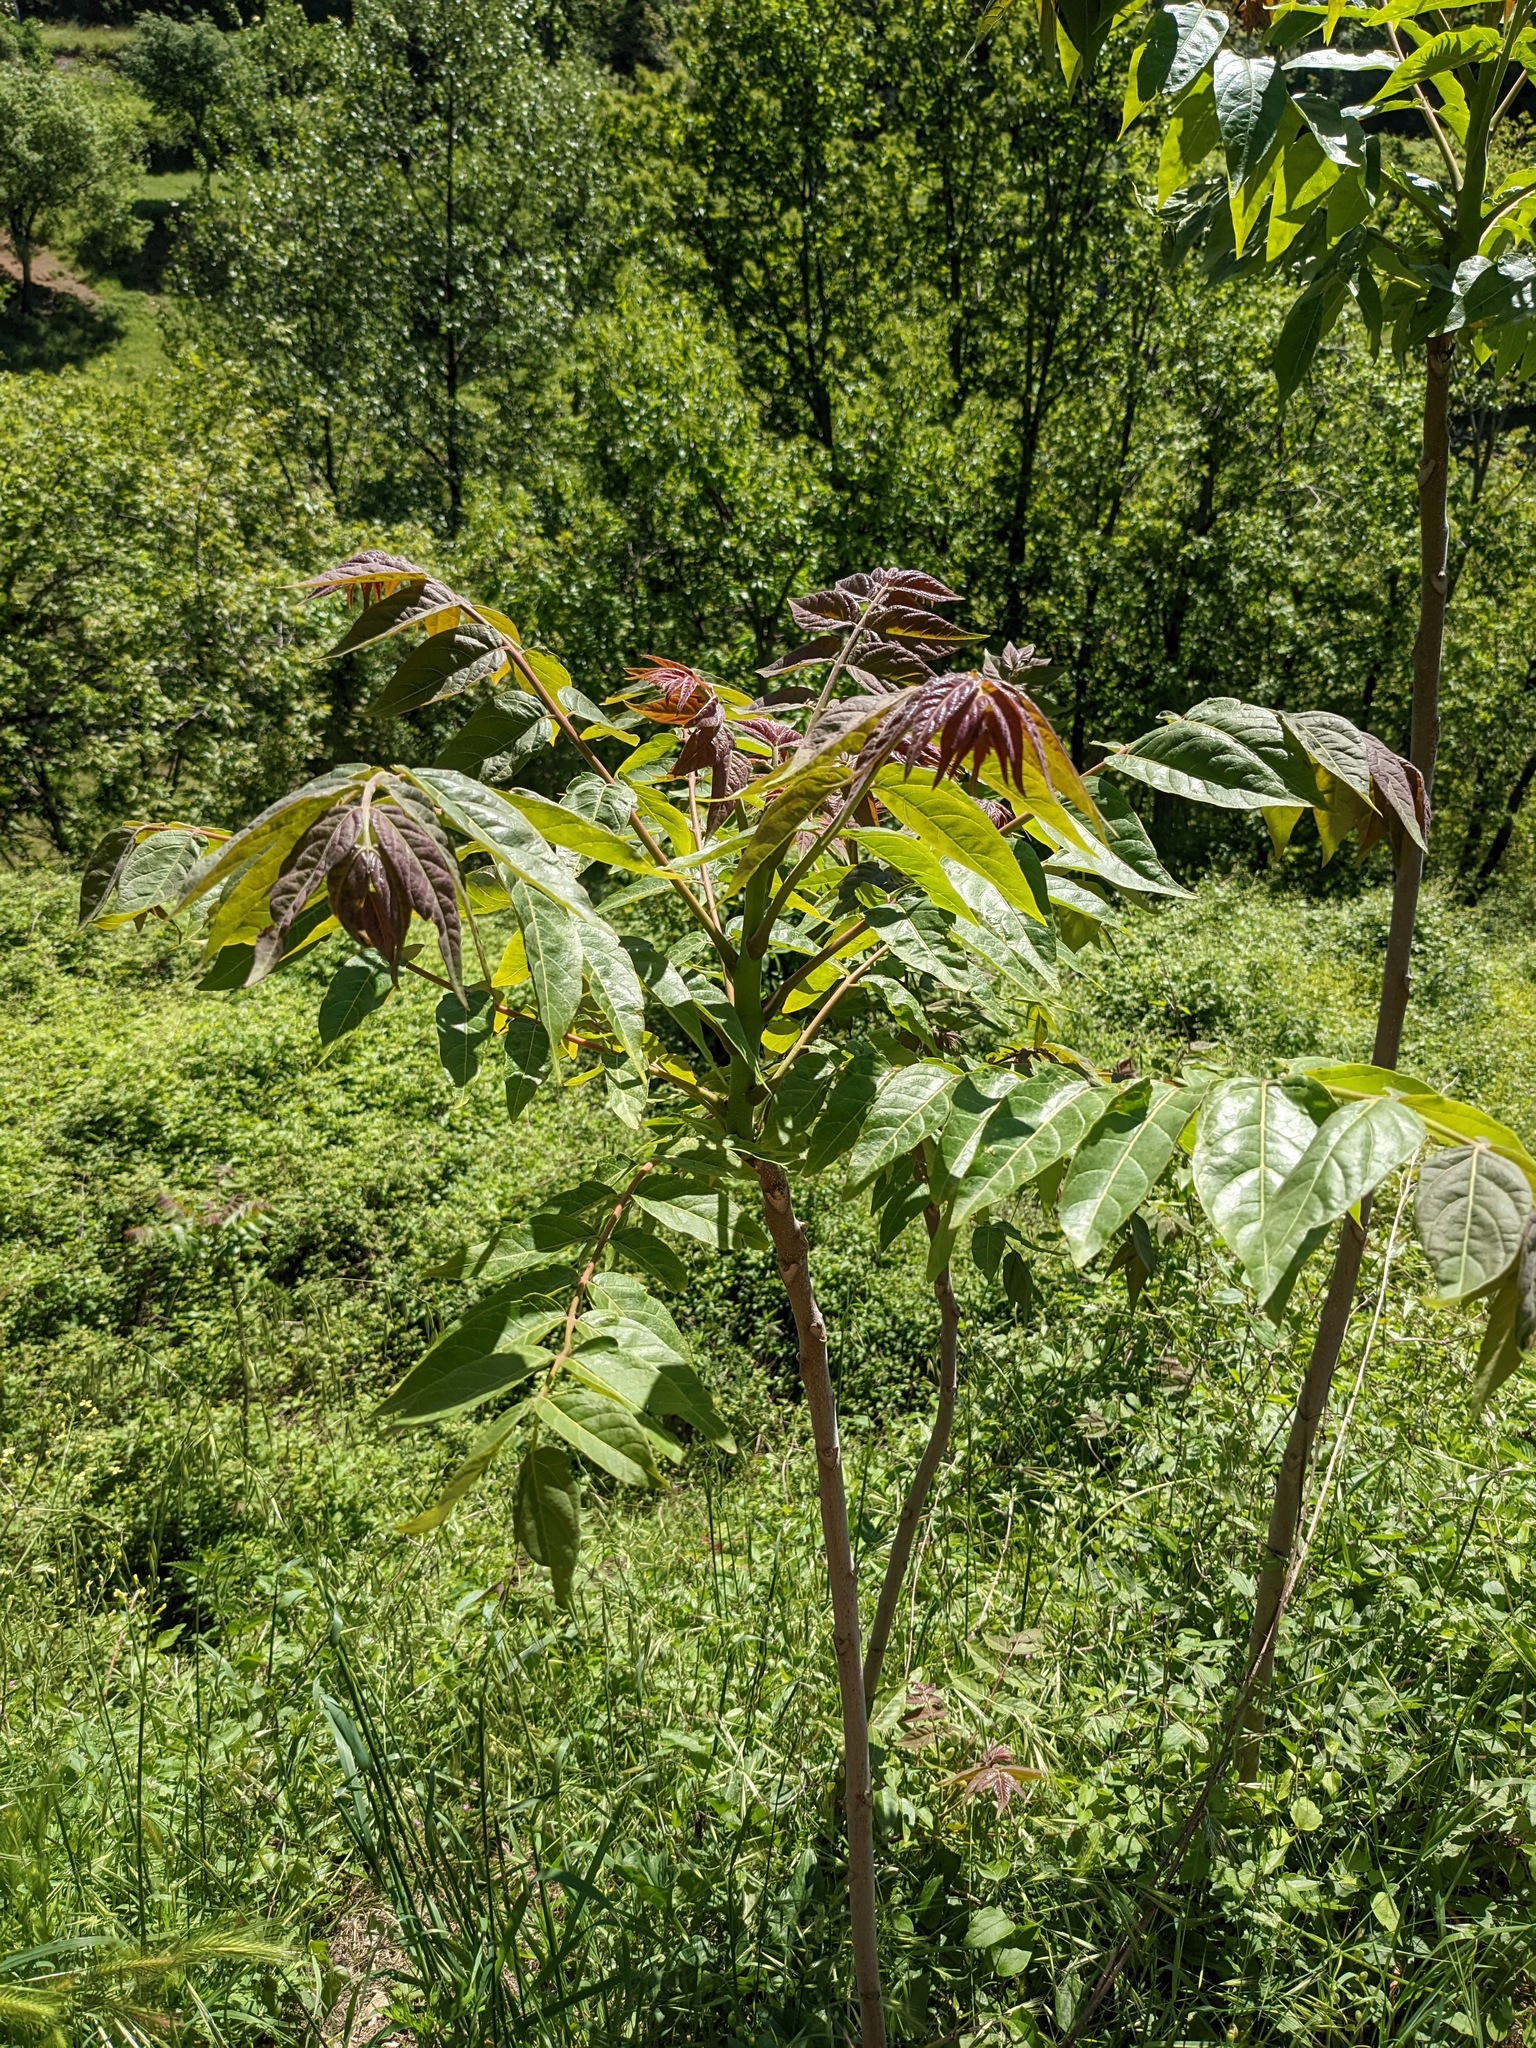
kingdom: Plantae
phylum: Tracheophyta
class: Magnoliopsida
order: Sapindales
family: Simaroubaceae
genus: Ailanthus
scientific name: Ailanthus altissima
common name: Tree-of-heaven
